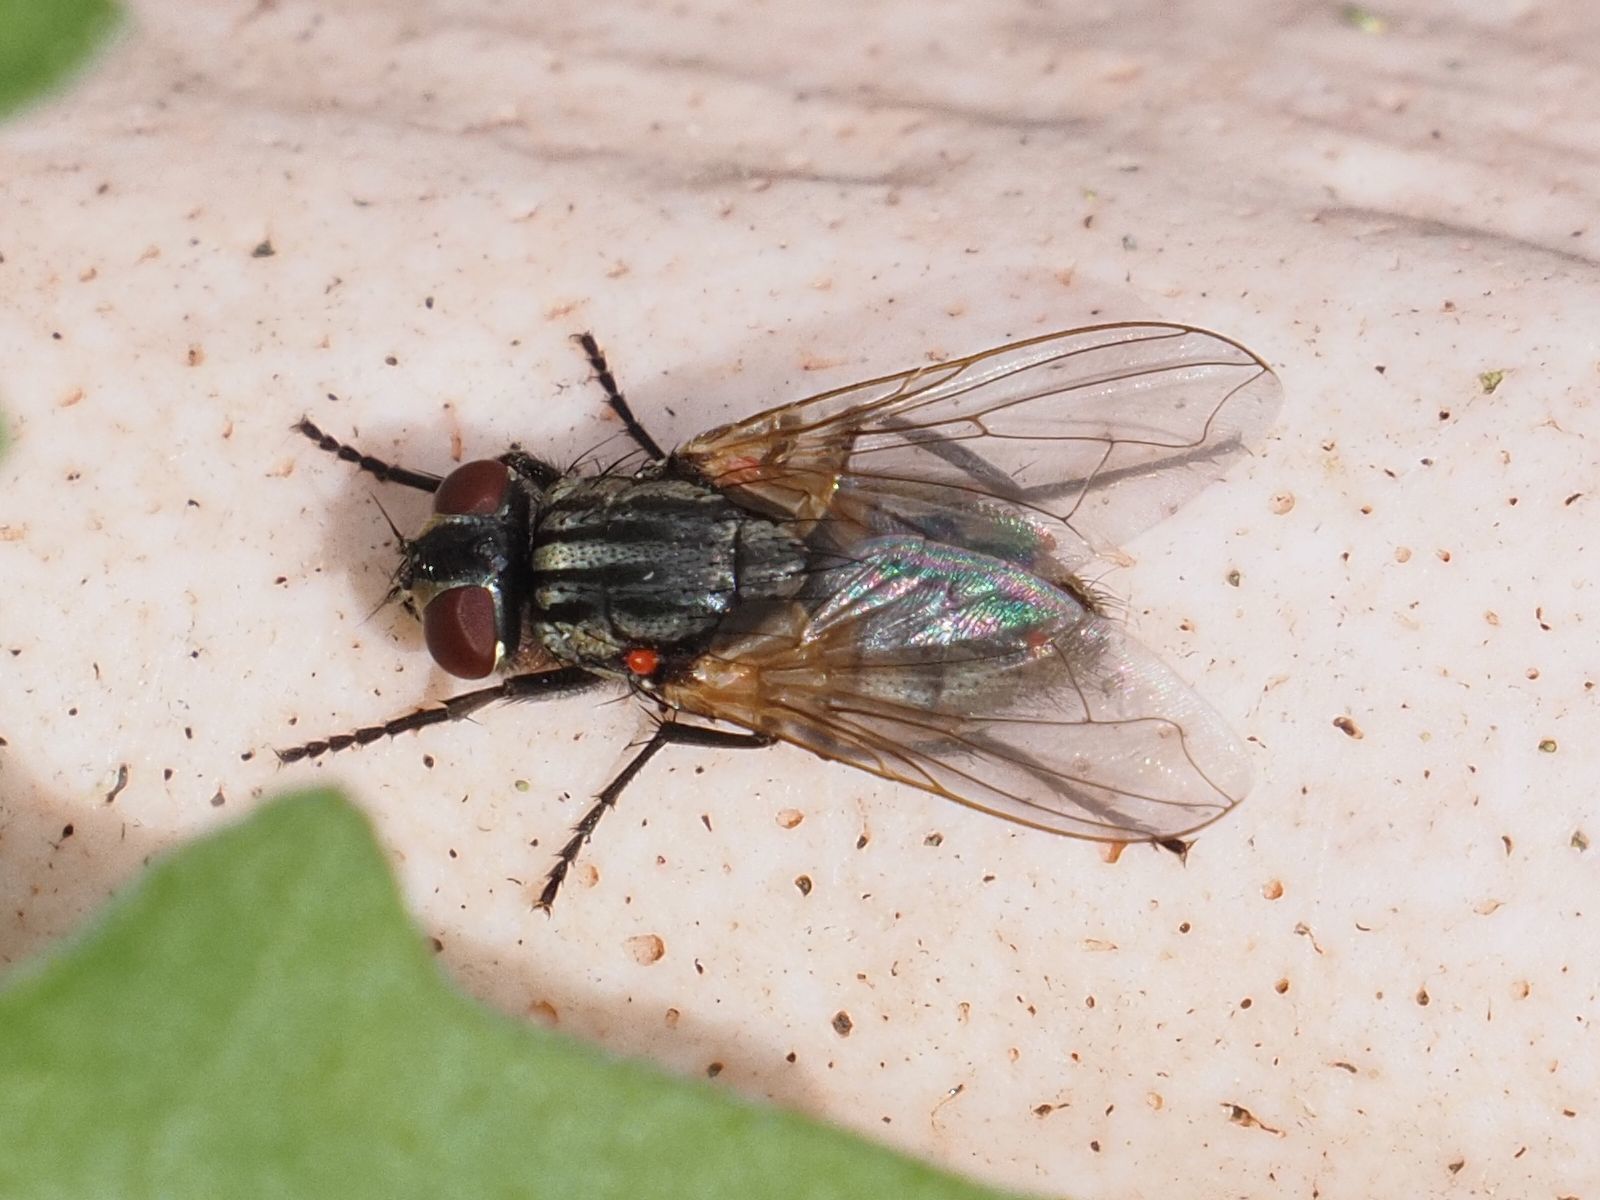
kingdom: Animalia
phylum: Arthropoda
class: Insecta
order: Diptera
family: Muscidae
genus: Musca
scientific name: Musca domestica
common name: House fly
